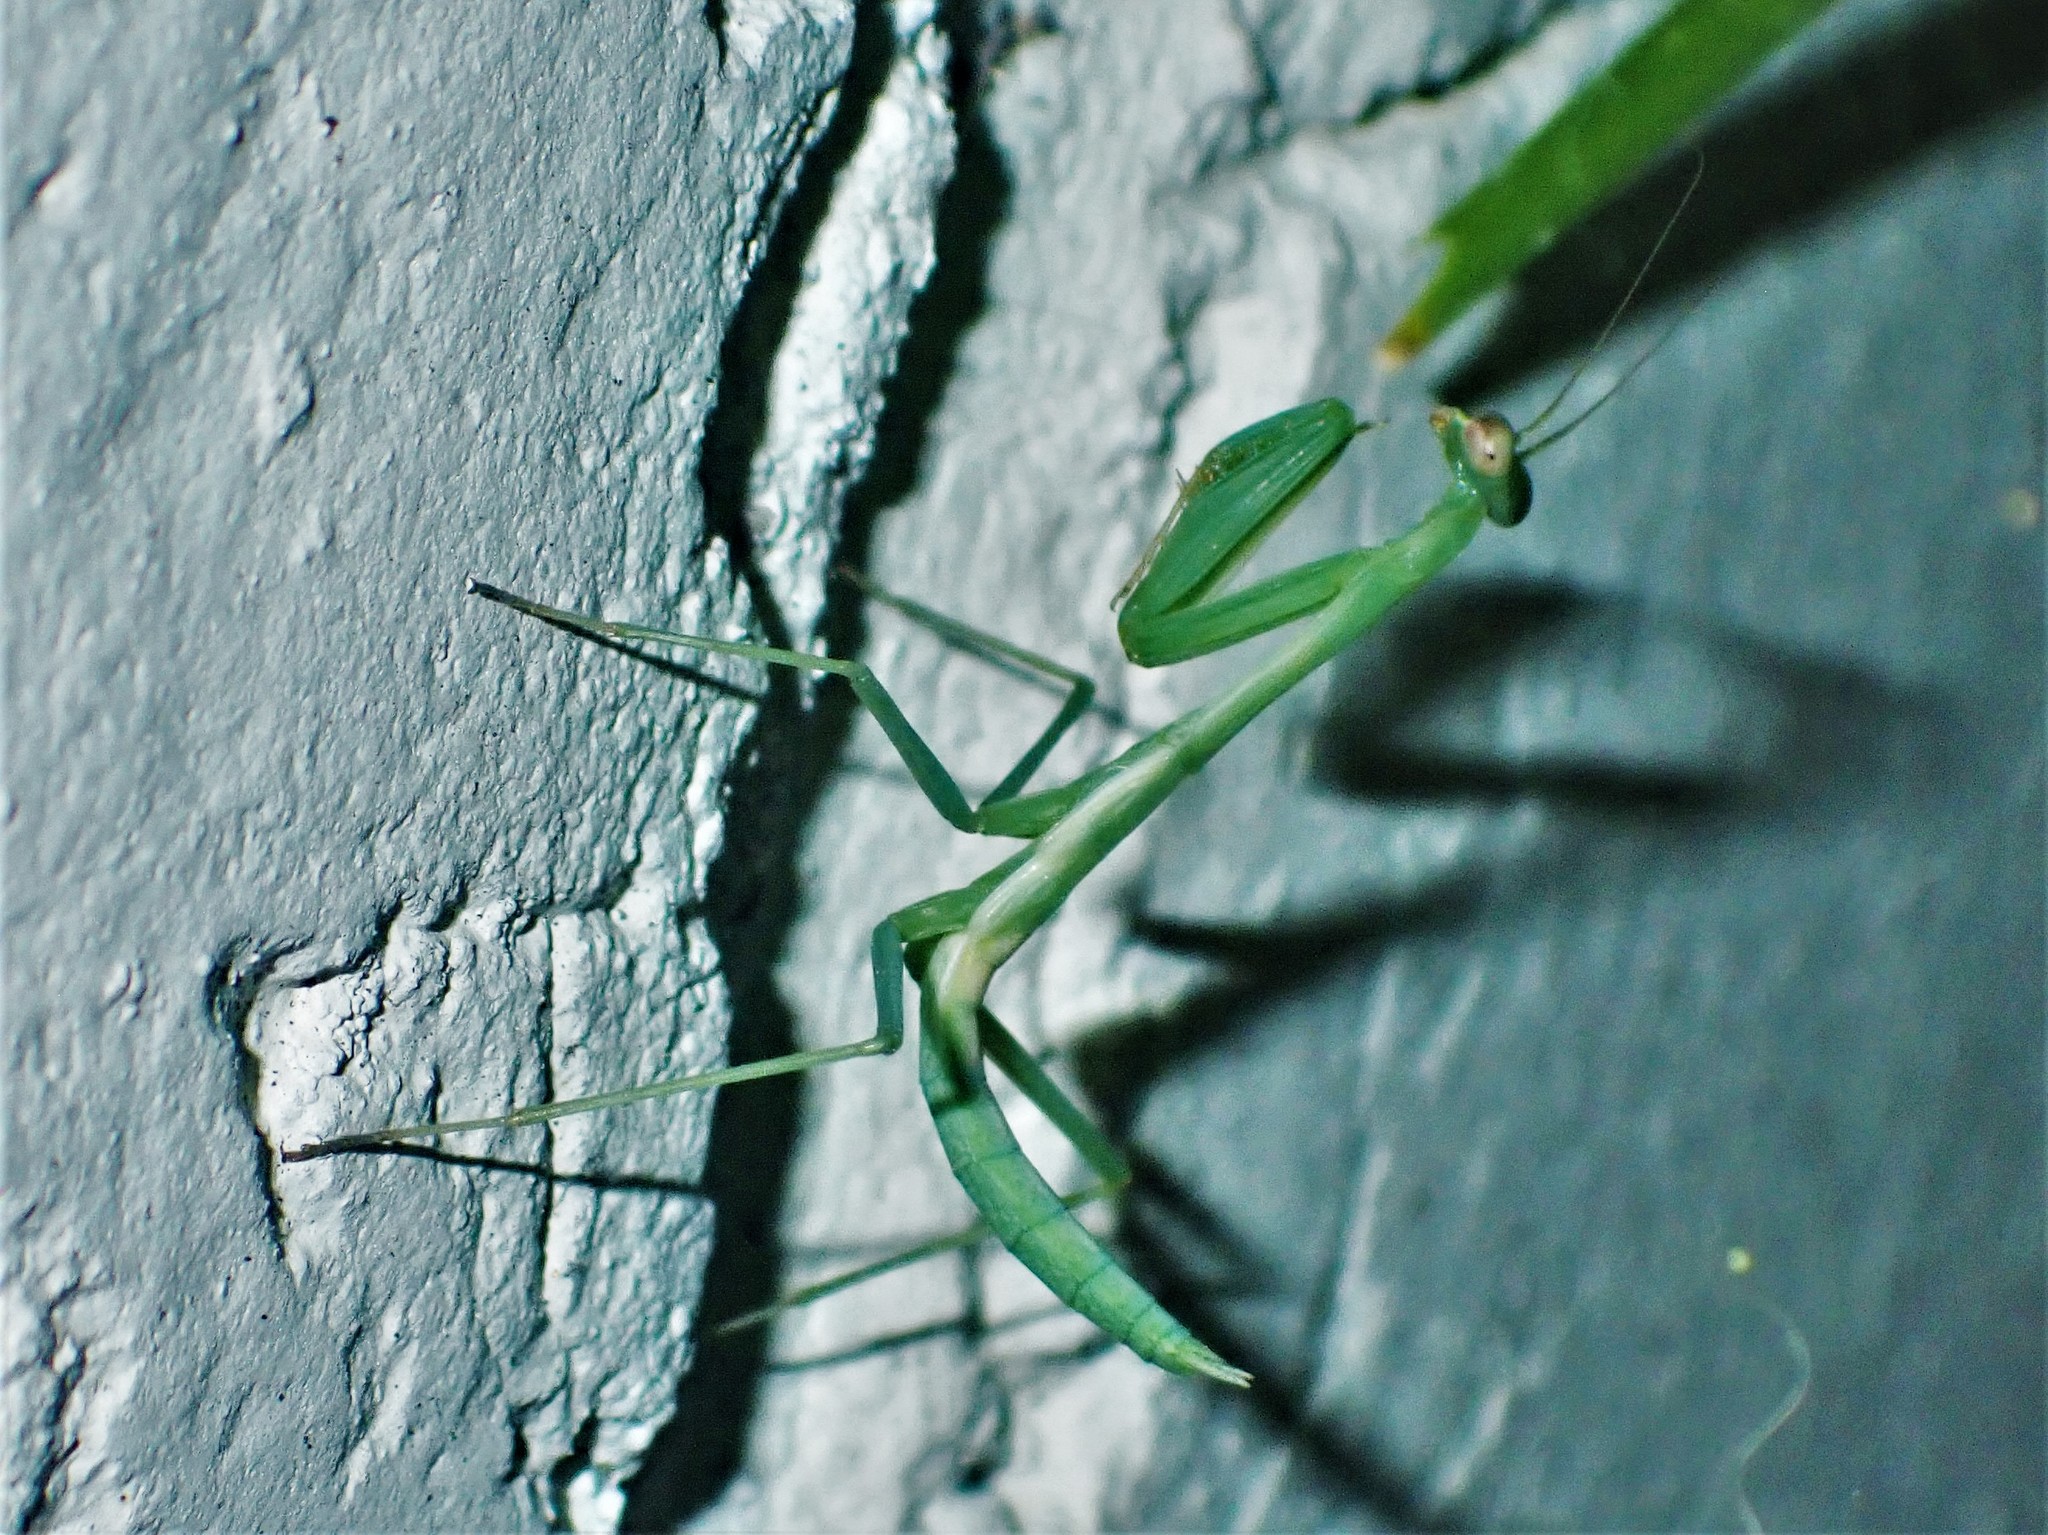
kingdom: Animalia
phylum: Arthropoda
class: Insecta
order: Mantodea
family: Miomantidae
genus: Miomantis
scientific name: Miomantis caffra
